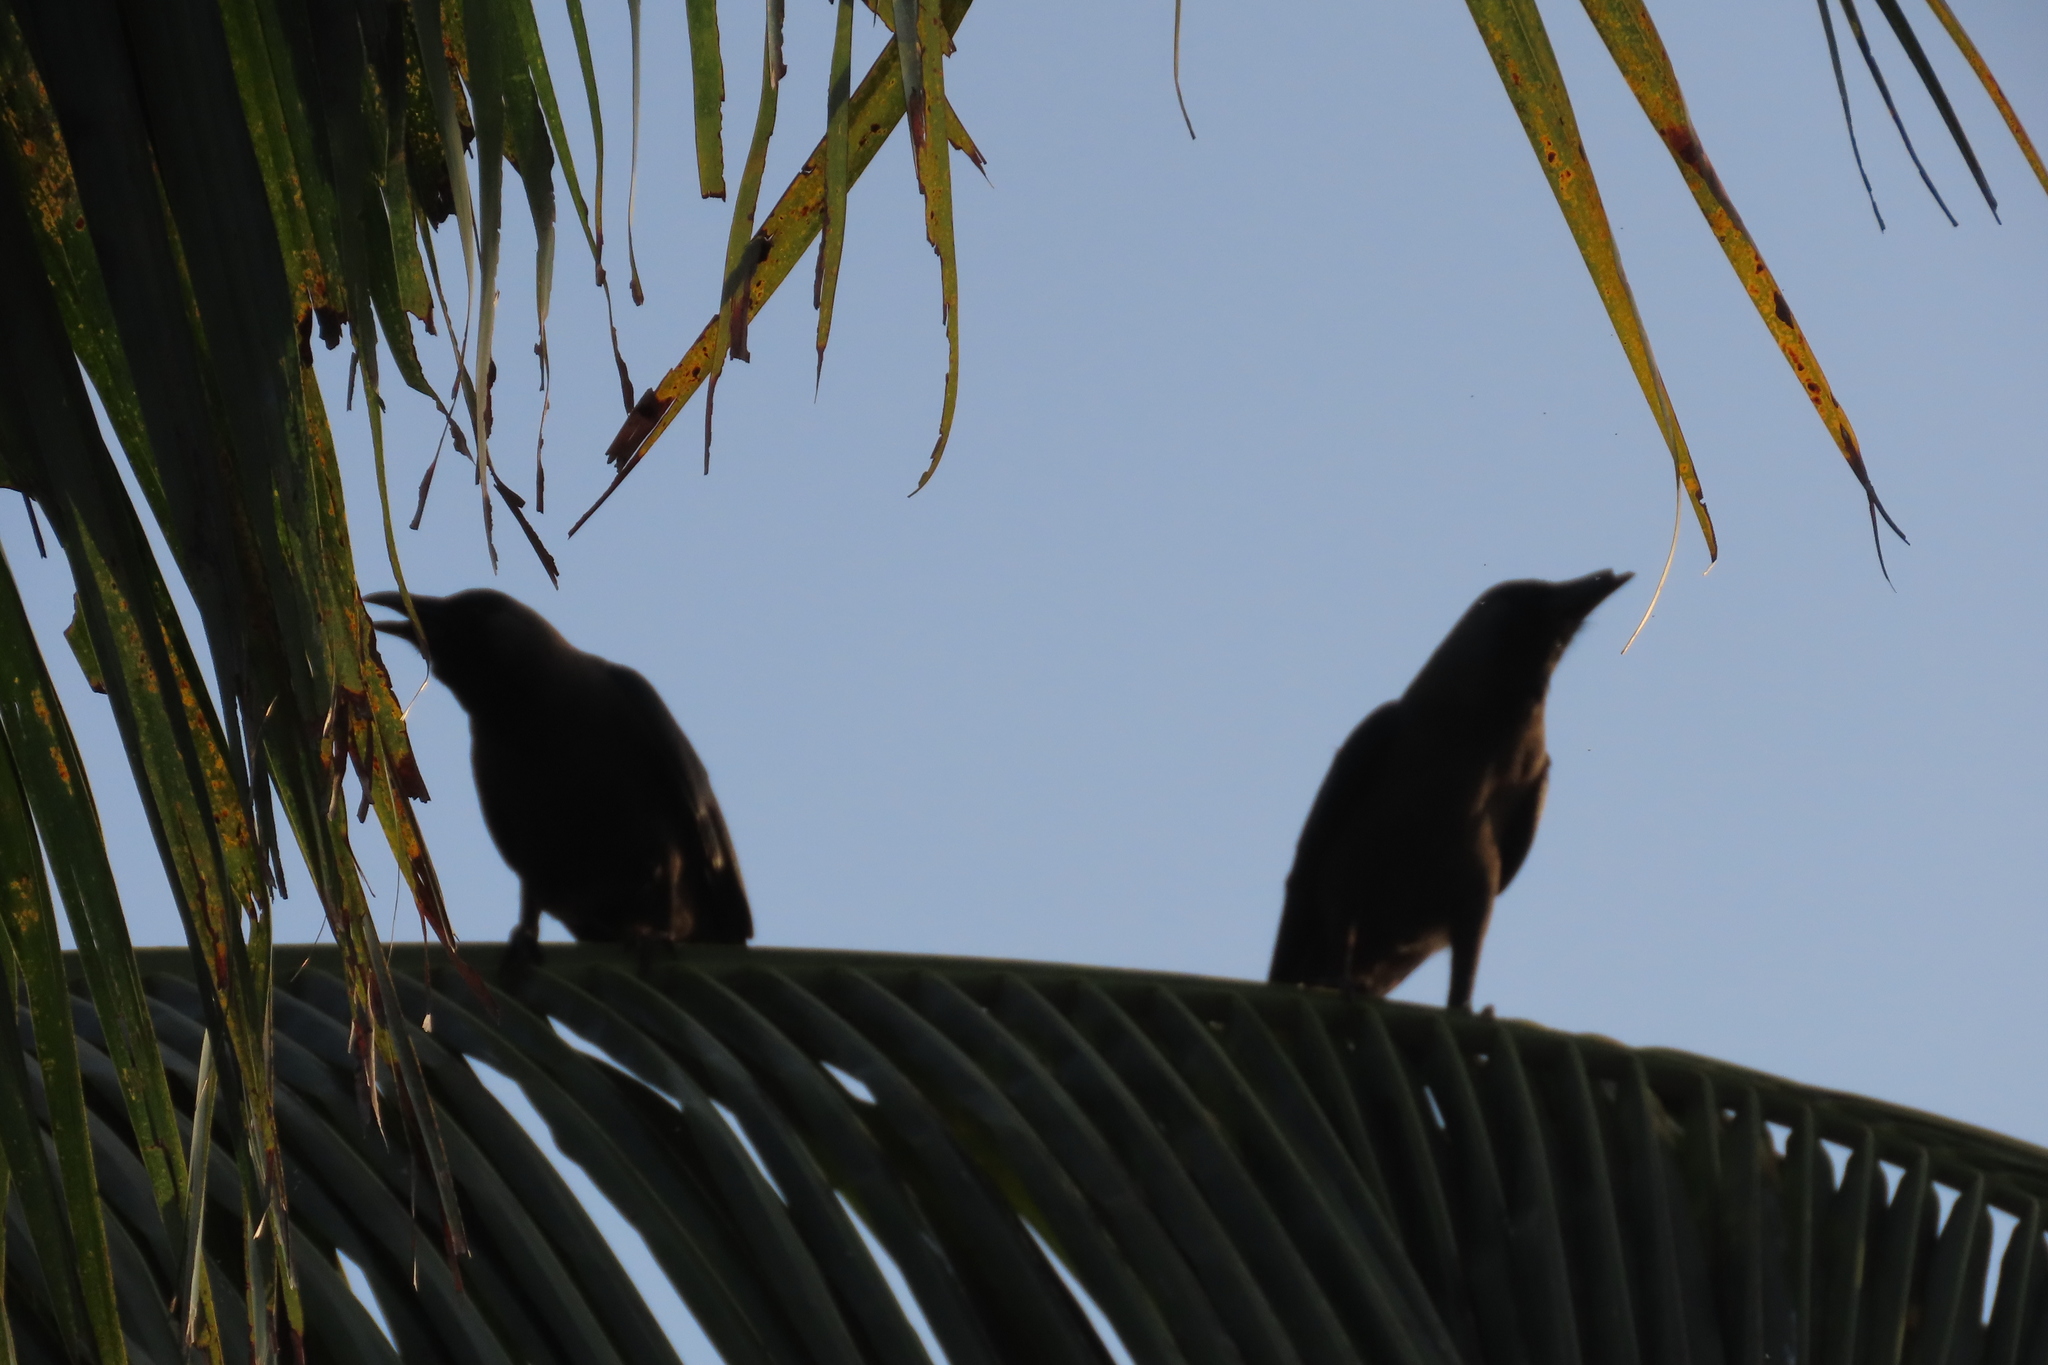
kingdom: Animalia
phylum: Chordata
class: Aves
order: Passeriformes
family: Corvidae
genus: Corvus
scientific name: Corvus splendens
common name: House crow
